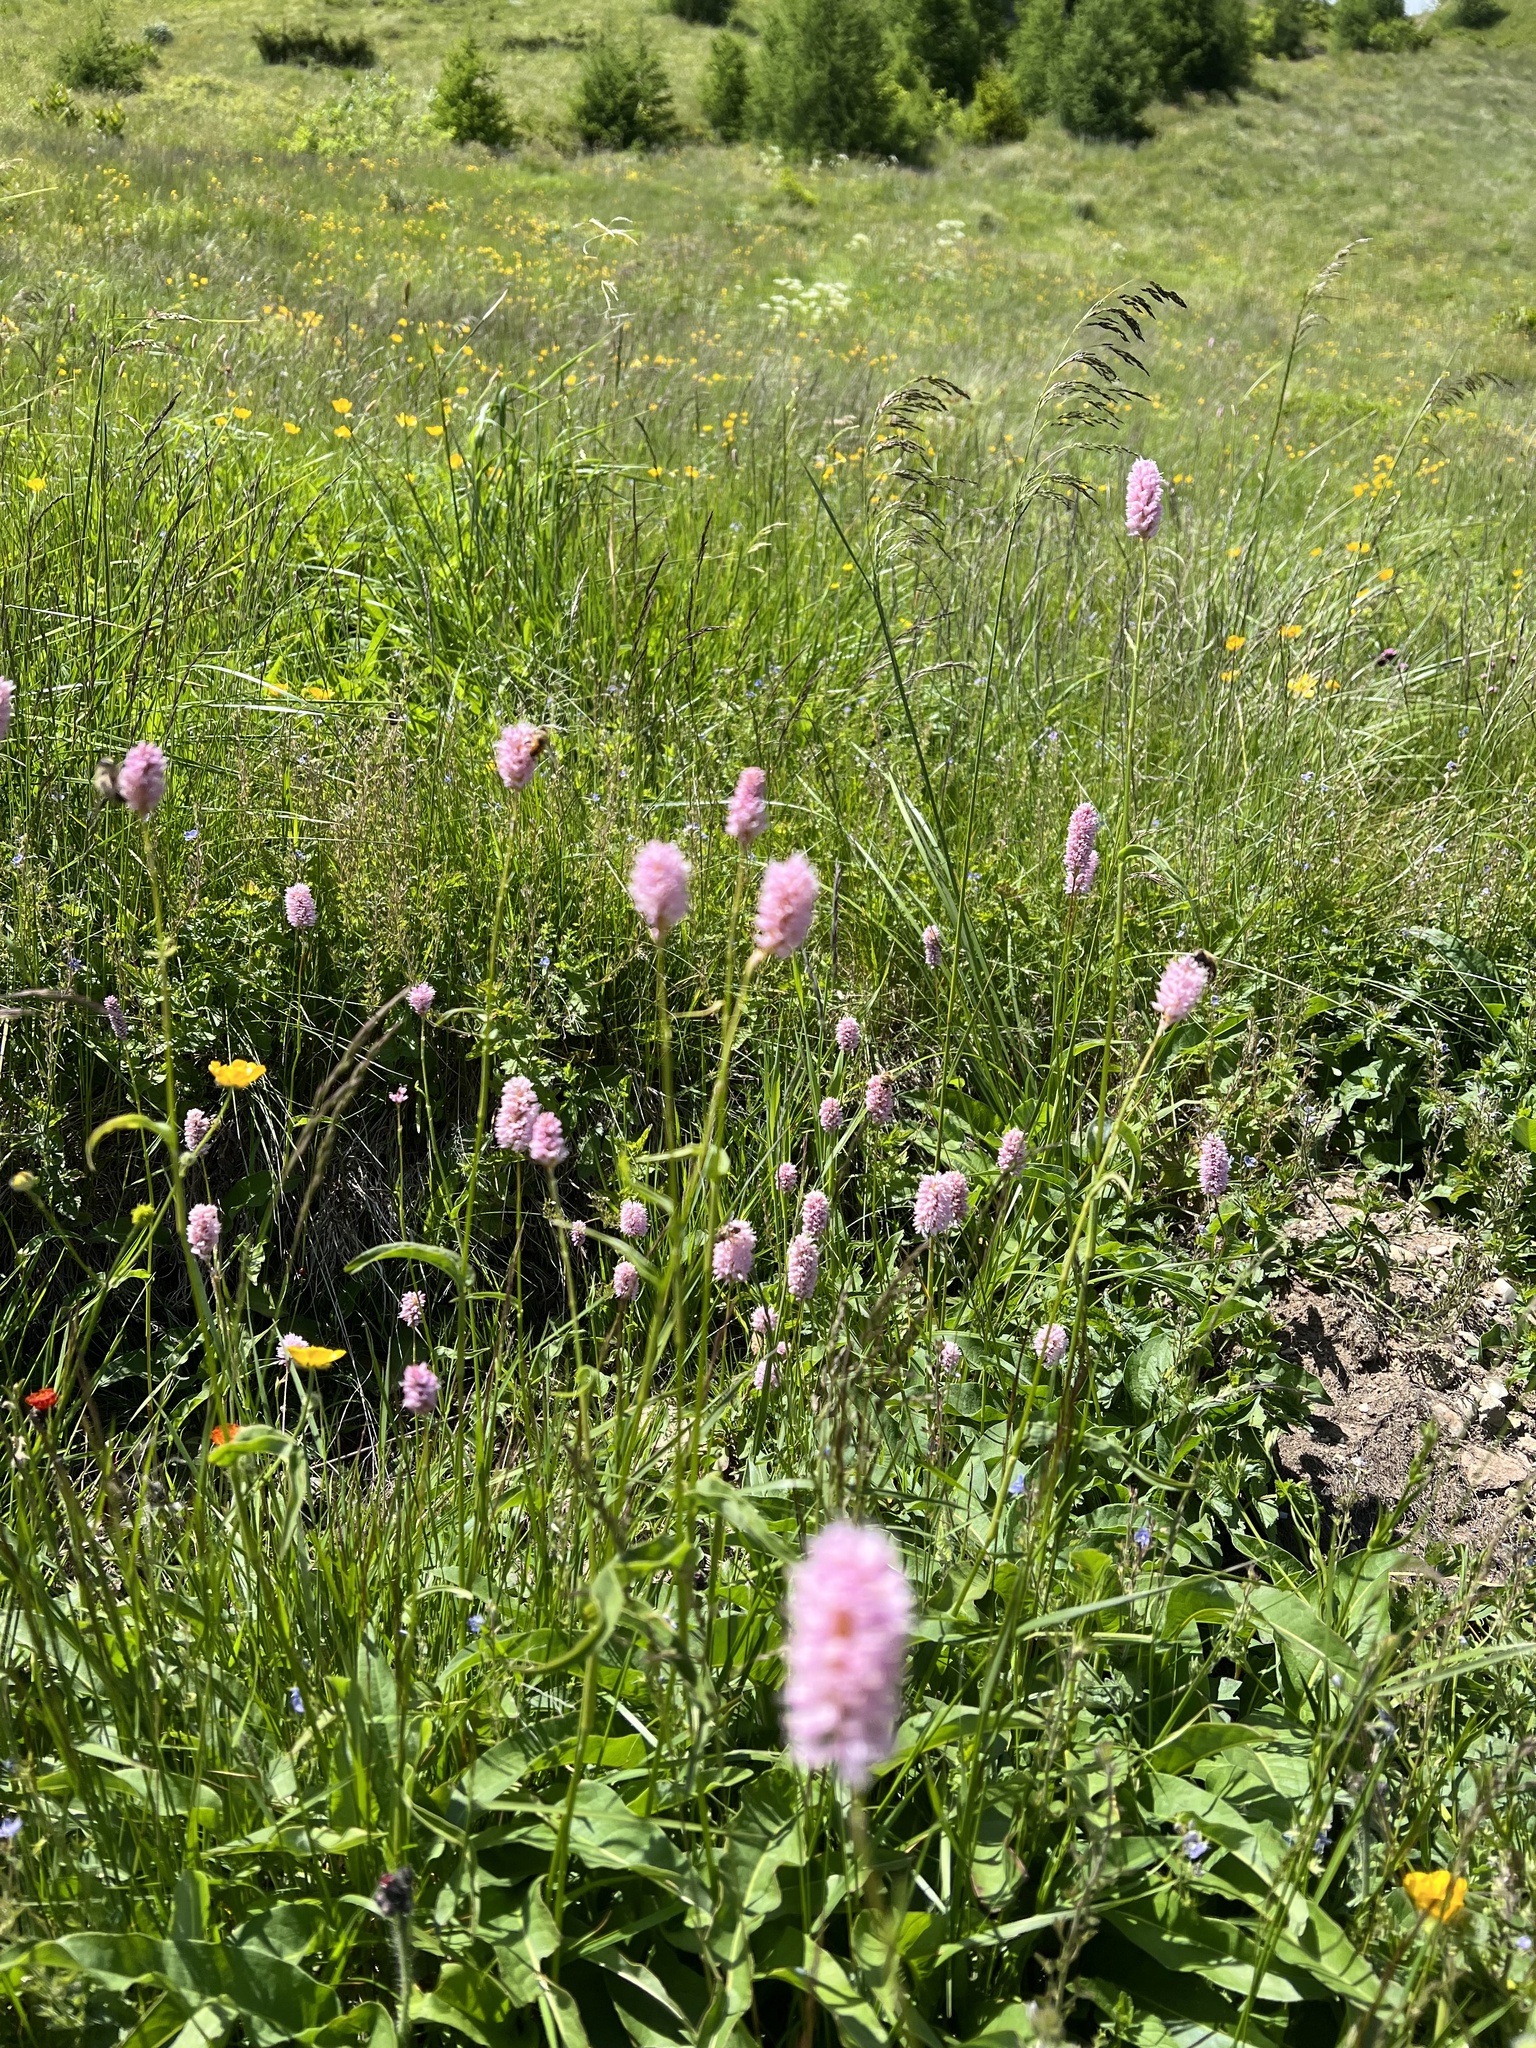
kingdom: Plantae
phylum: Tracheophyta
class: Magnoliopsida
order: Caryophyllales
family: Polygonaceae
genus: Bistorta
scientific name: Bistorta officinalis
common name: Common bistort
